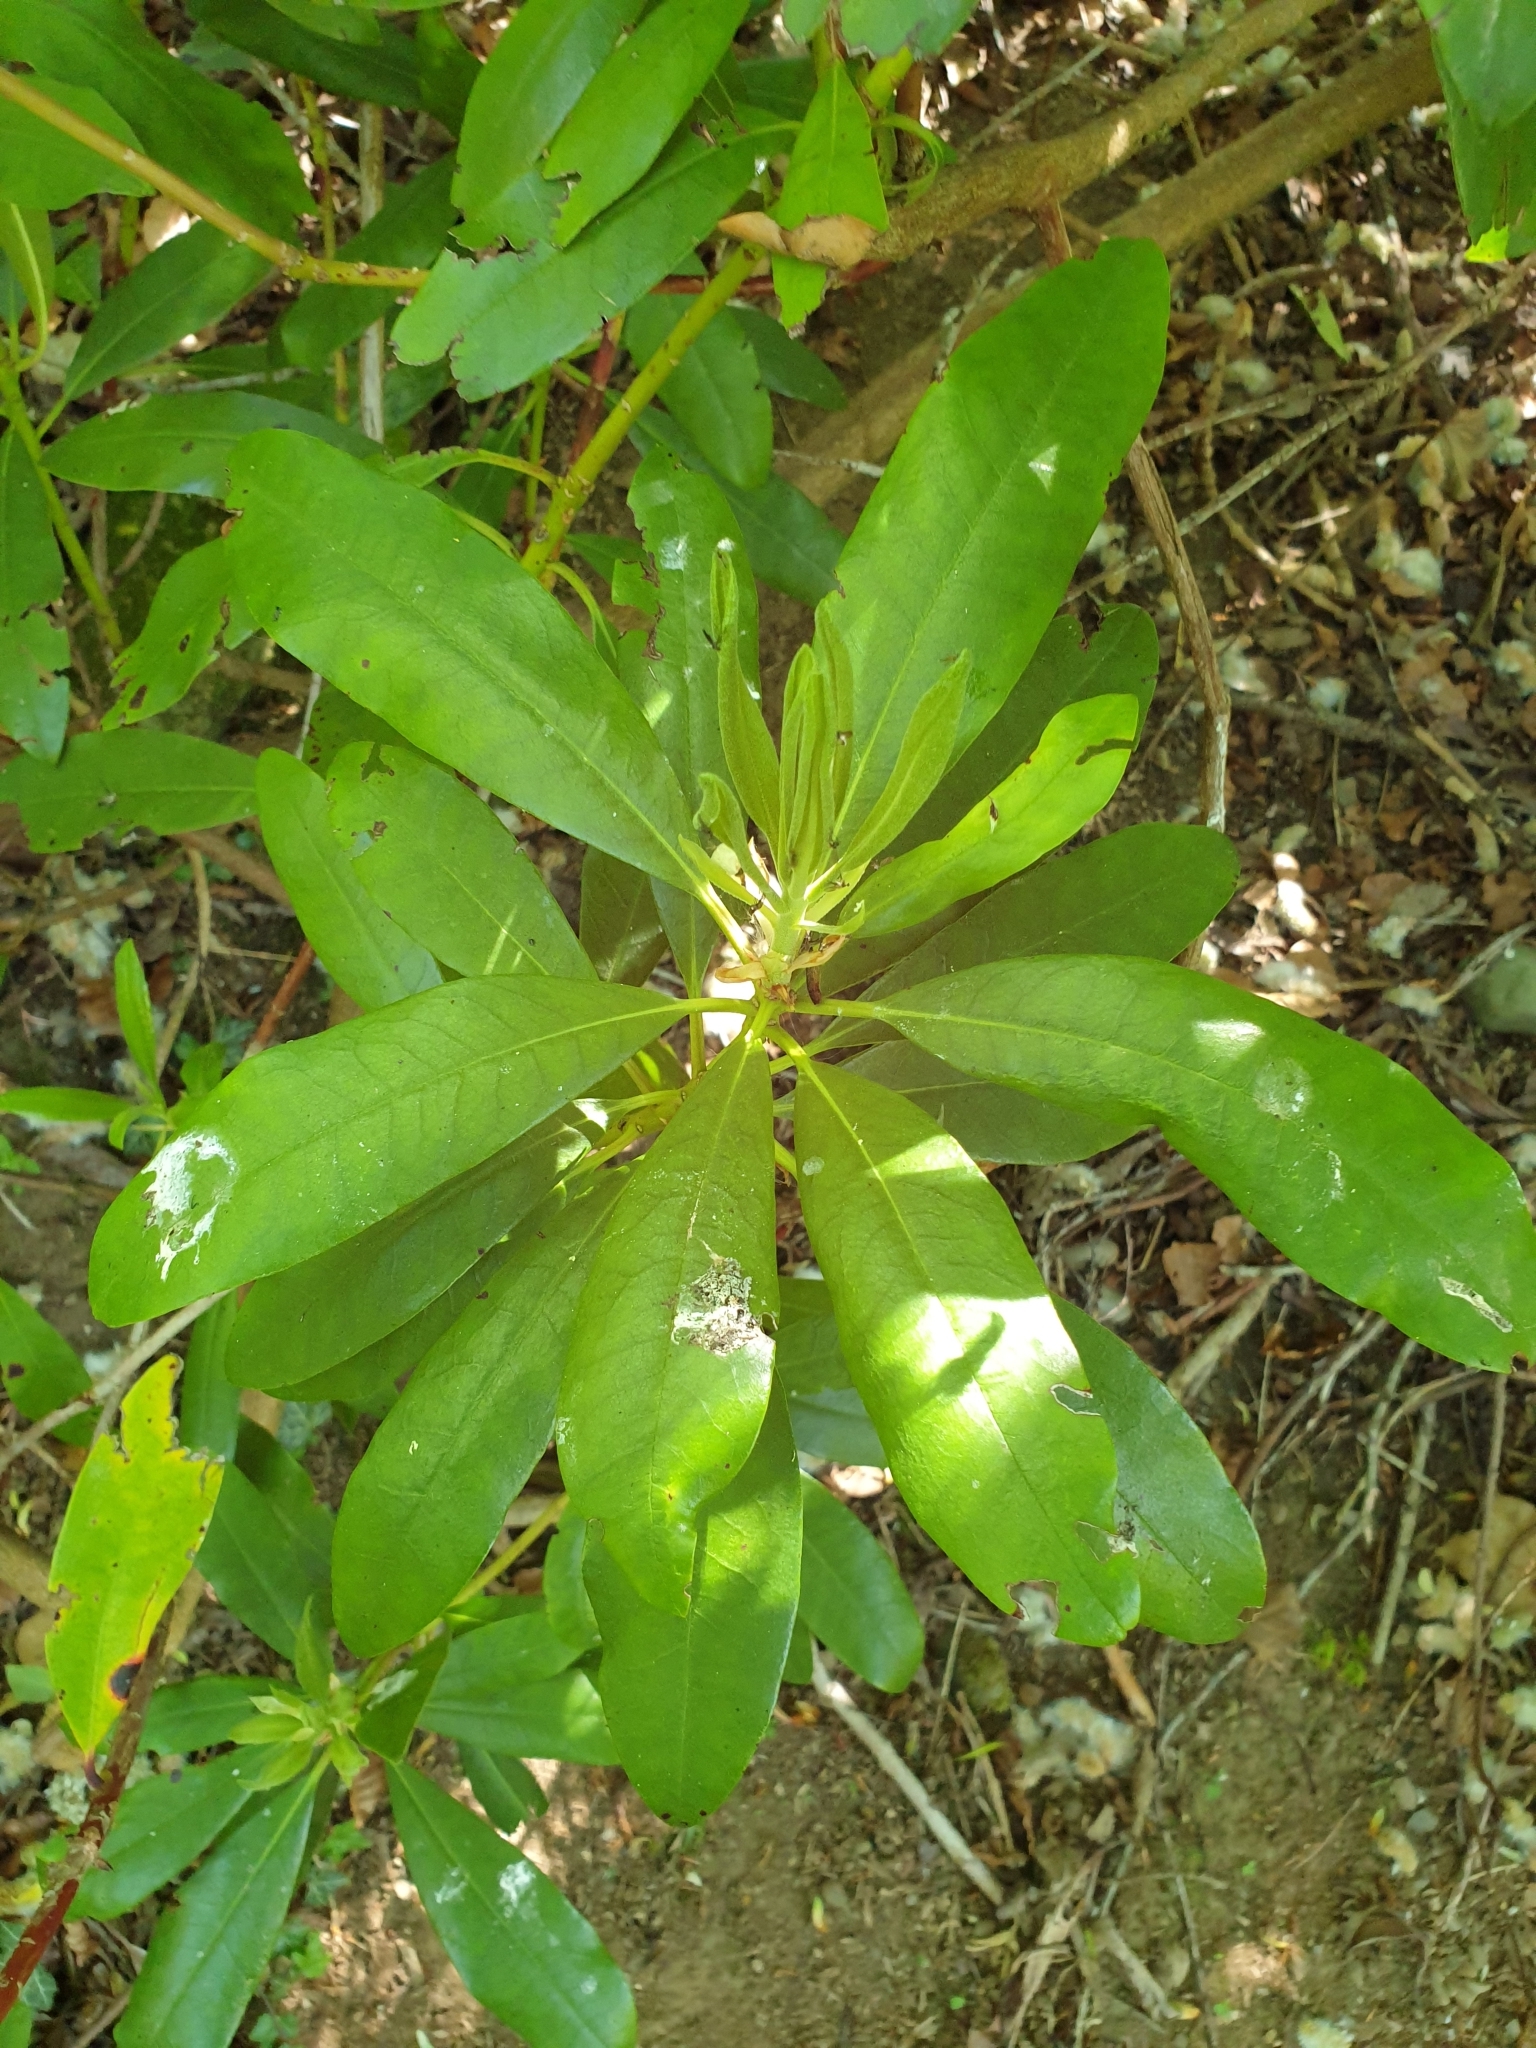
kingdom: Plantae
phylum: Tracheophyta
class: Magnoliopsida
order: Ericales
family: Ericaceae
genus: Rhododendron
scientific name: Rhododendron ponticum
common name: Rhododendron
